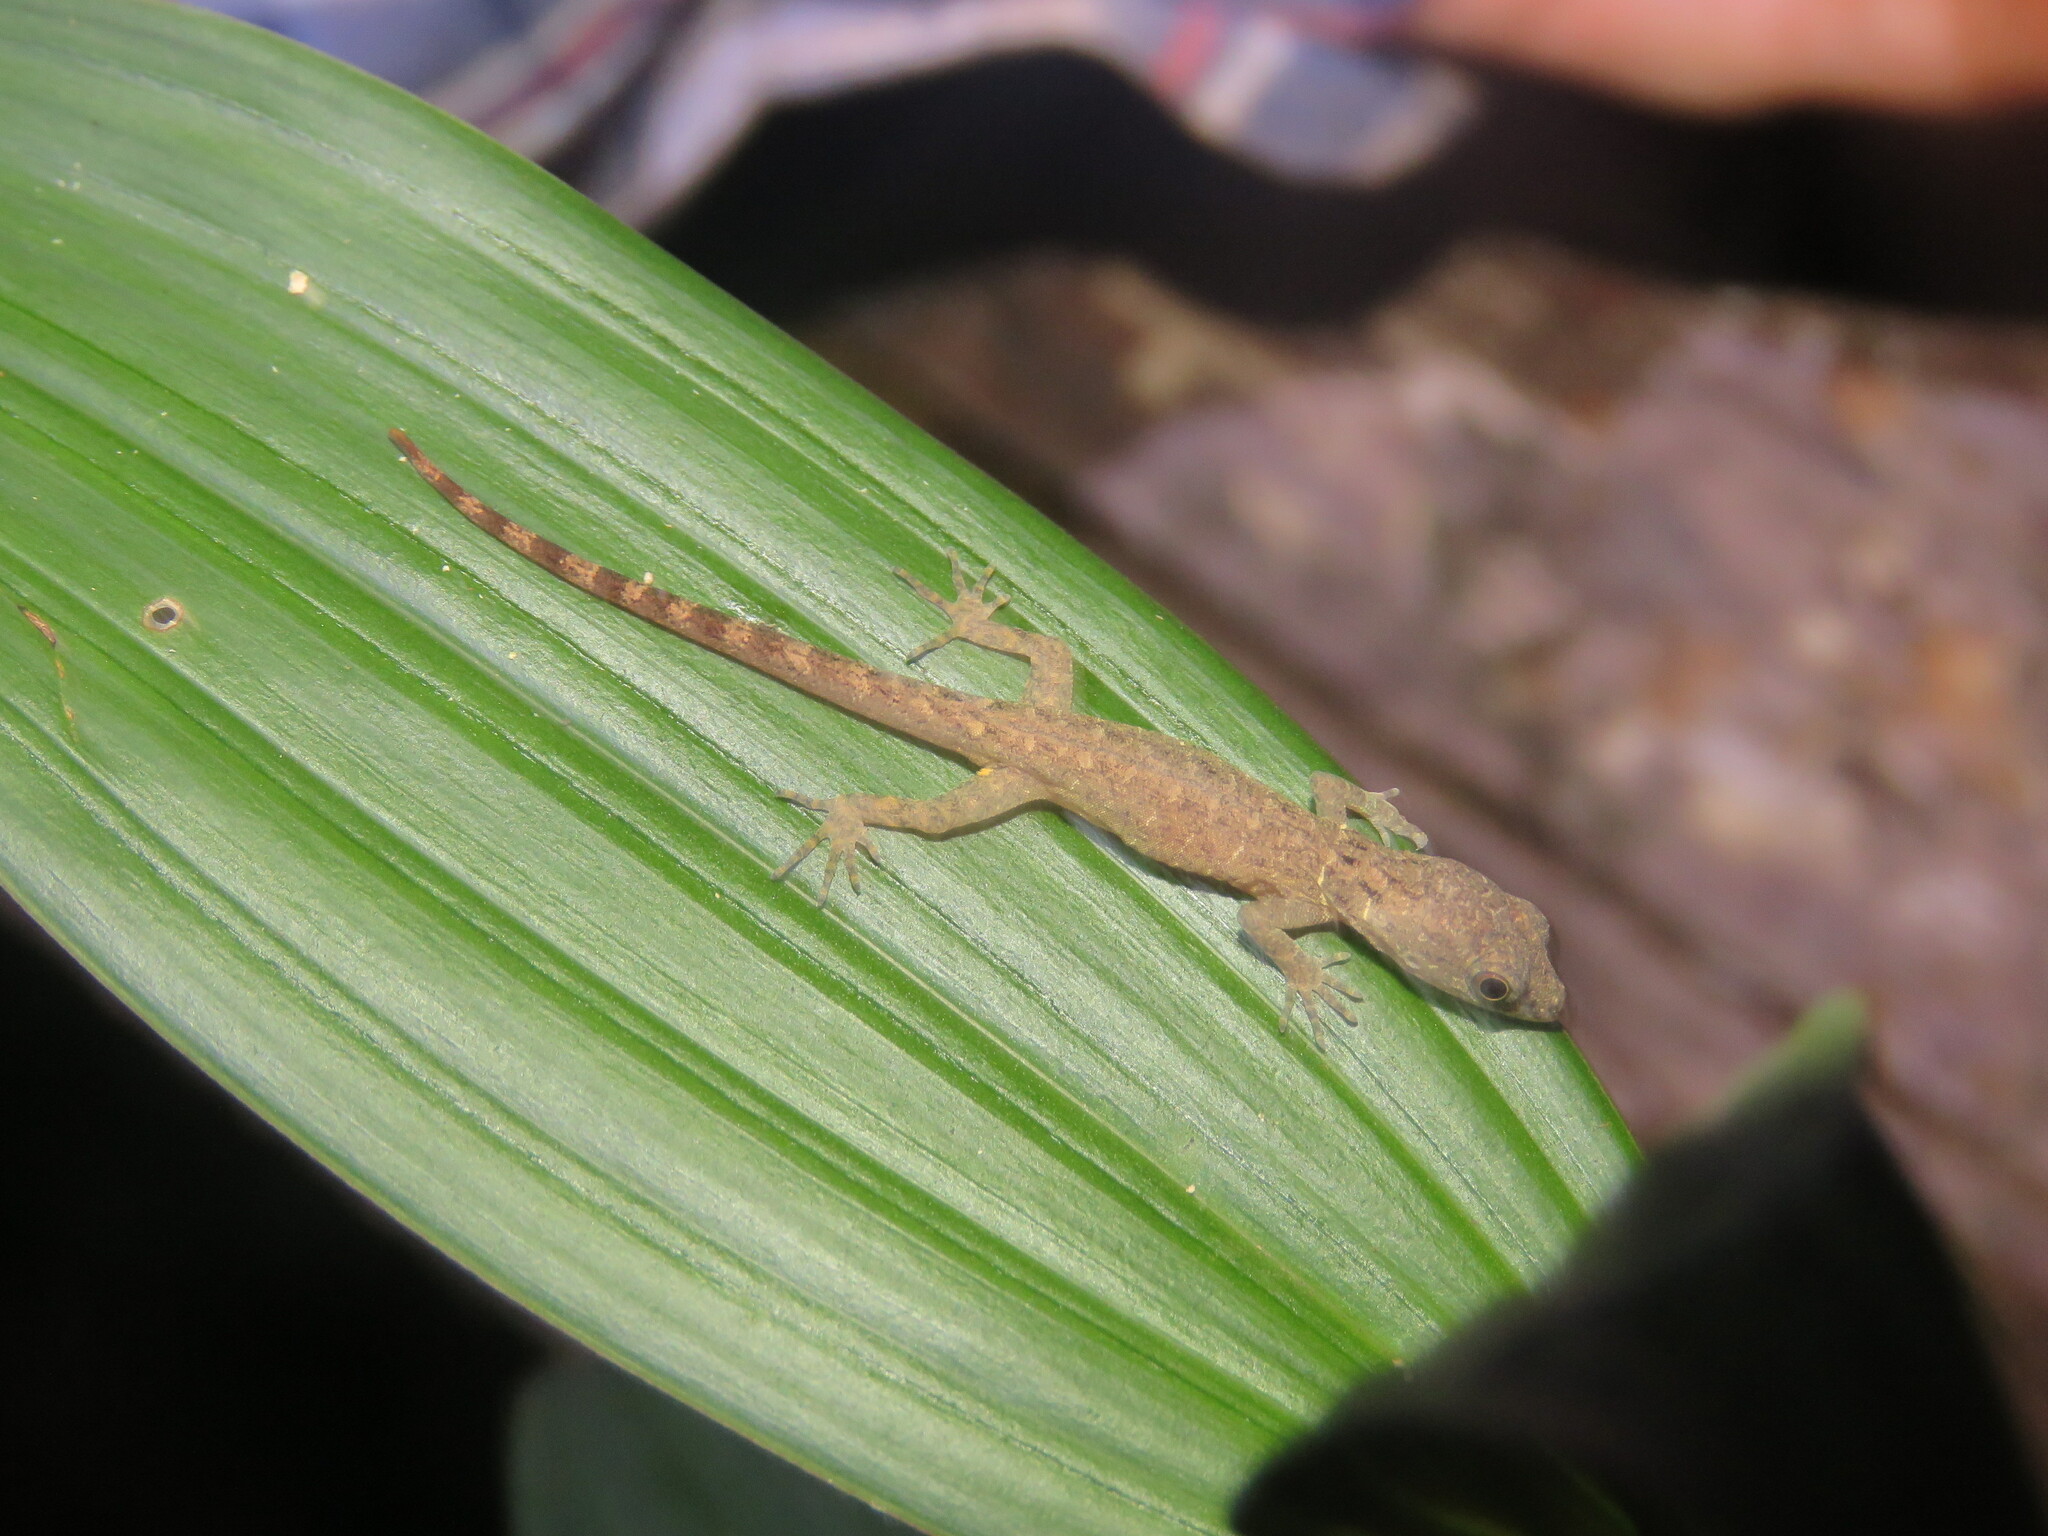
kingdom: Animalia
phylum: Chordata
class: Squamata
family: Sphaerodactylidae
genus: Gonatodes
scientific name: Gonatodes humeralis
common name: South american clawed gecko
